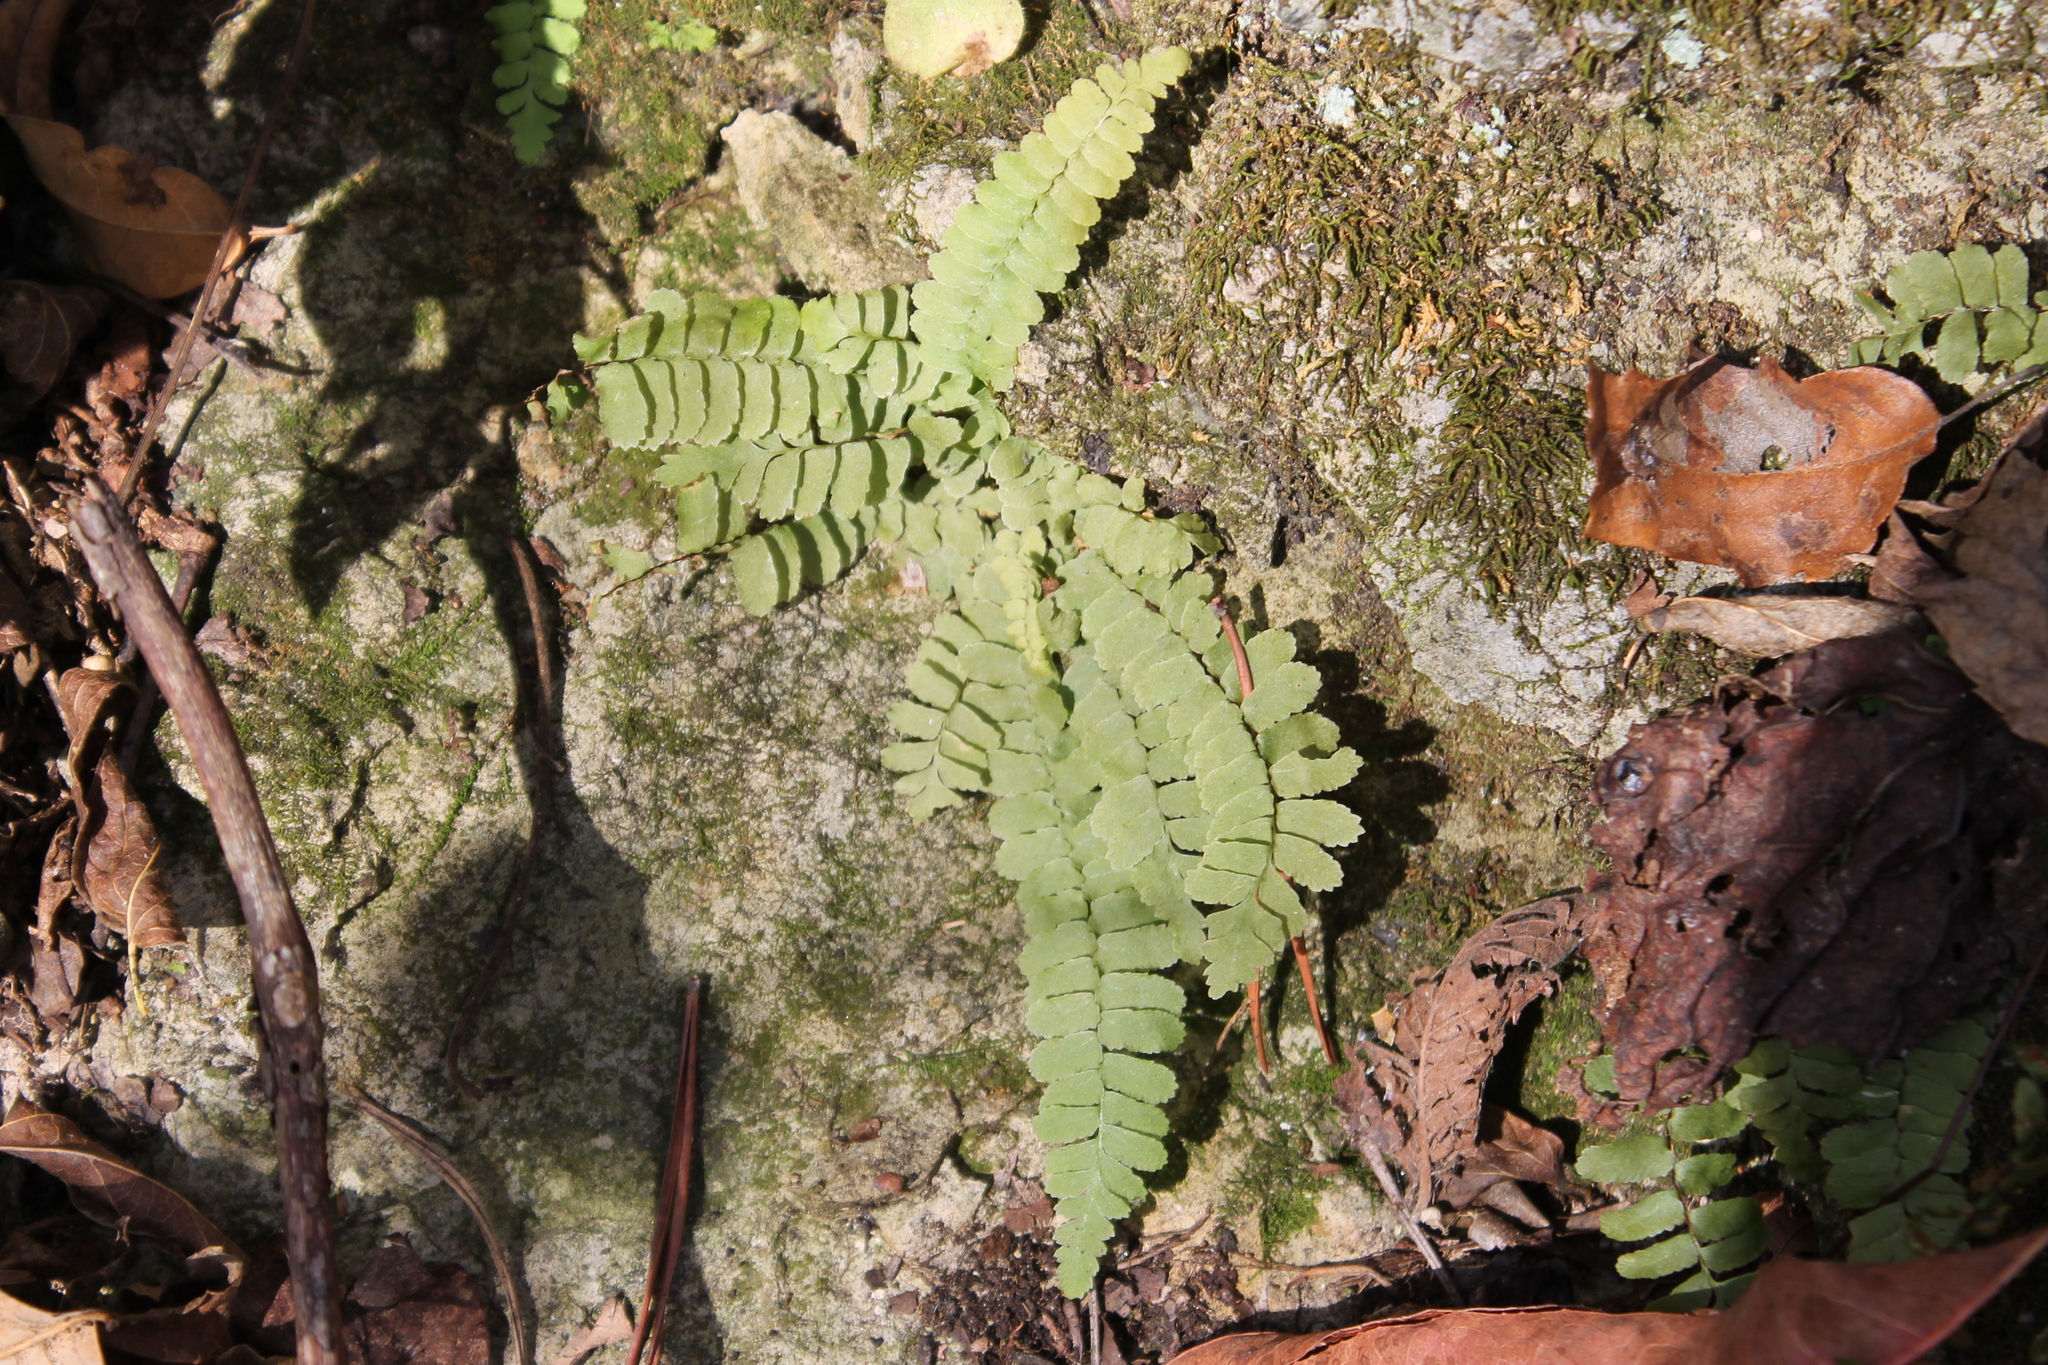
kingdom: Plantae
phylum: Tracheophyta
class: Polypodiopsida
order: Polypodiales
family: Aspleniaceae
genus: Asplenium
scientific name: Asplenium platyneuron
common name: Ebony spleenwort
